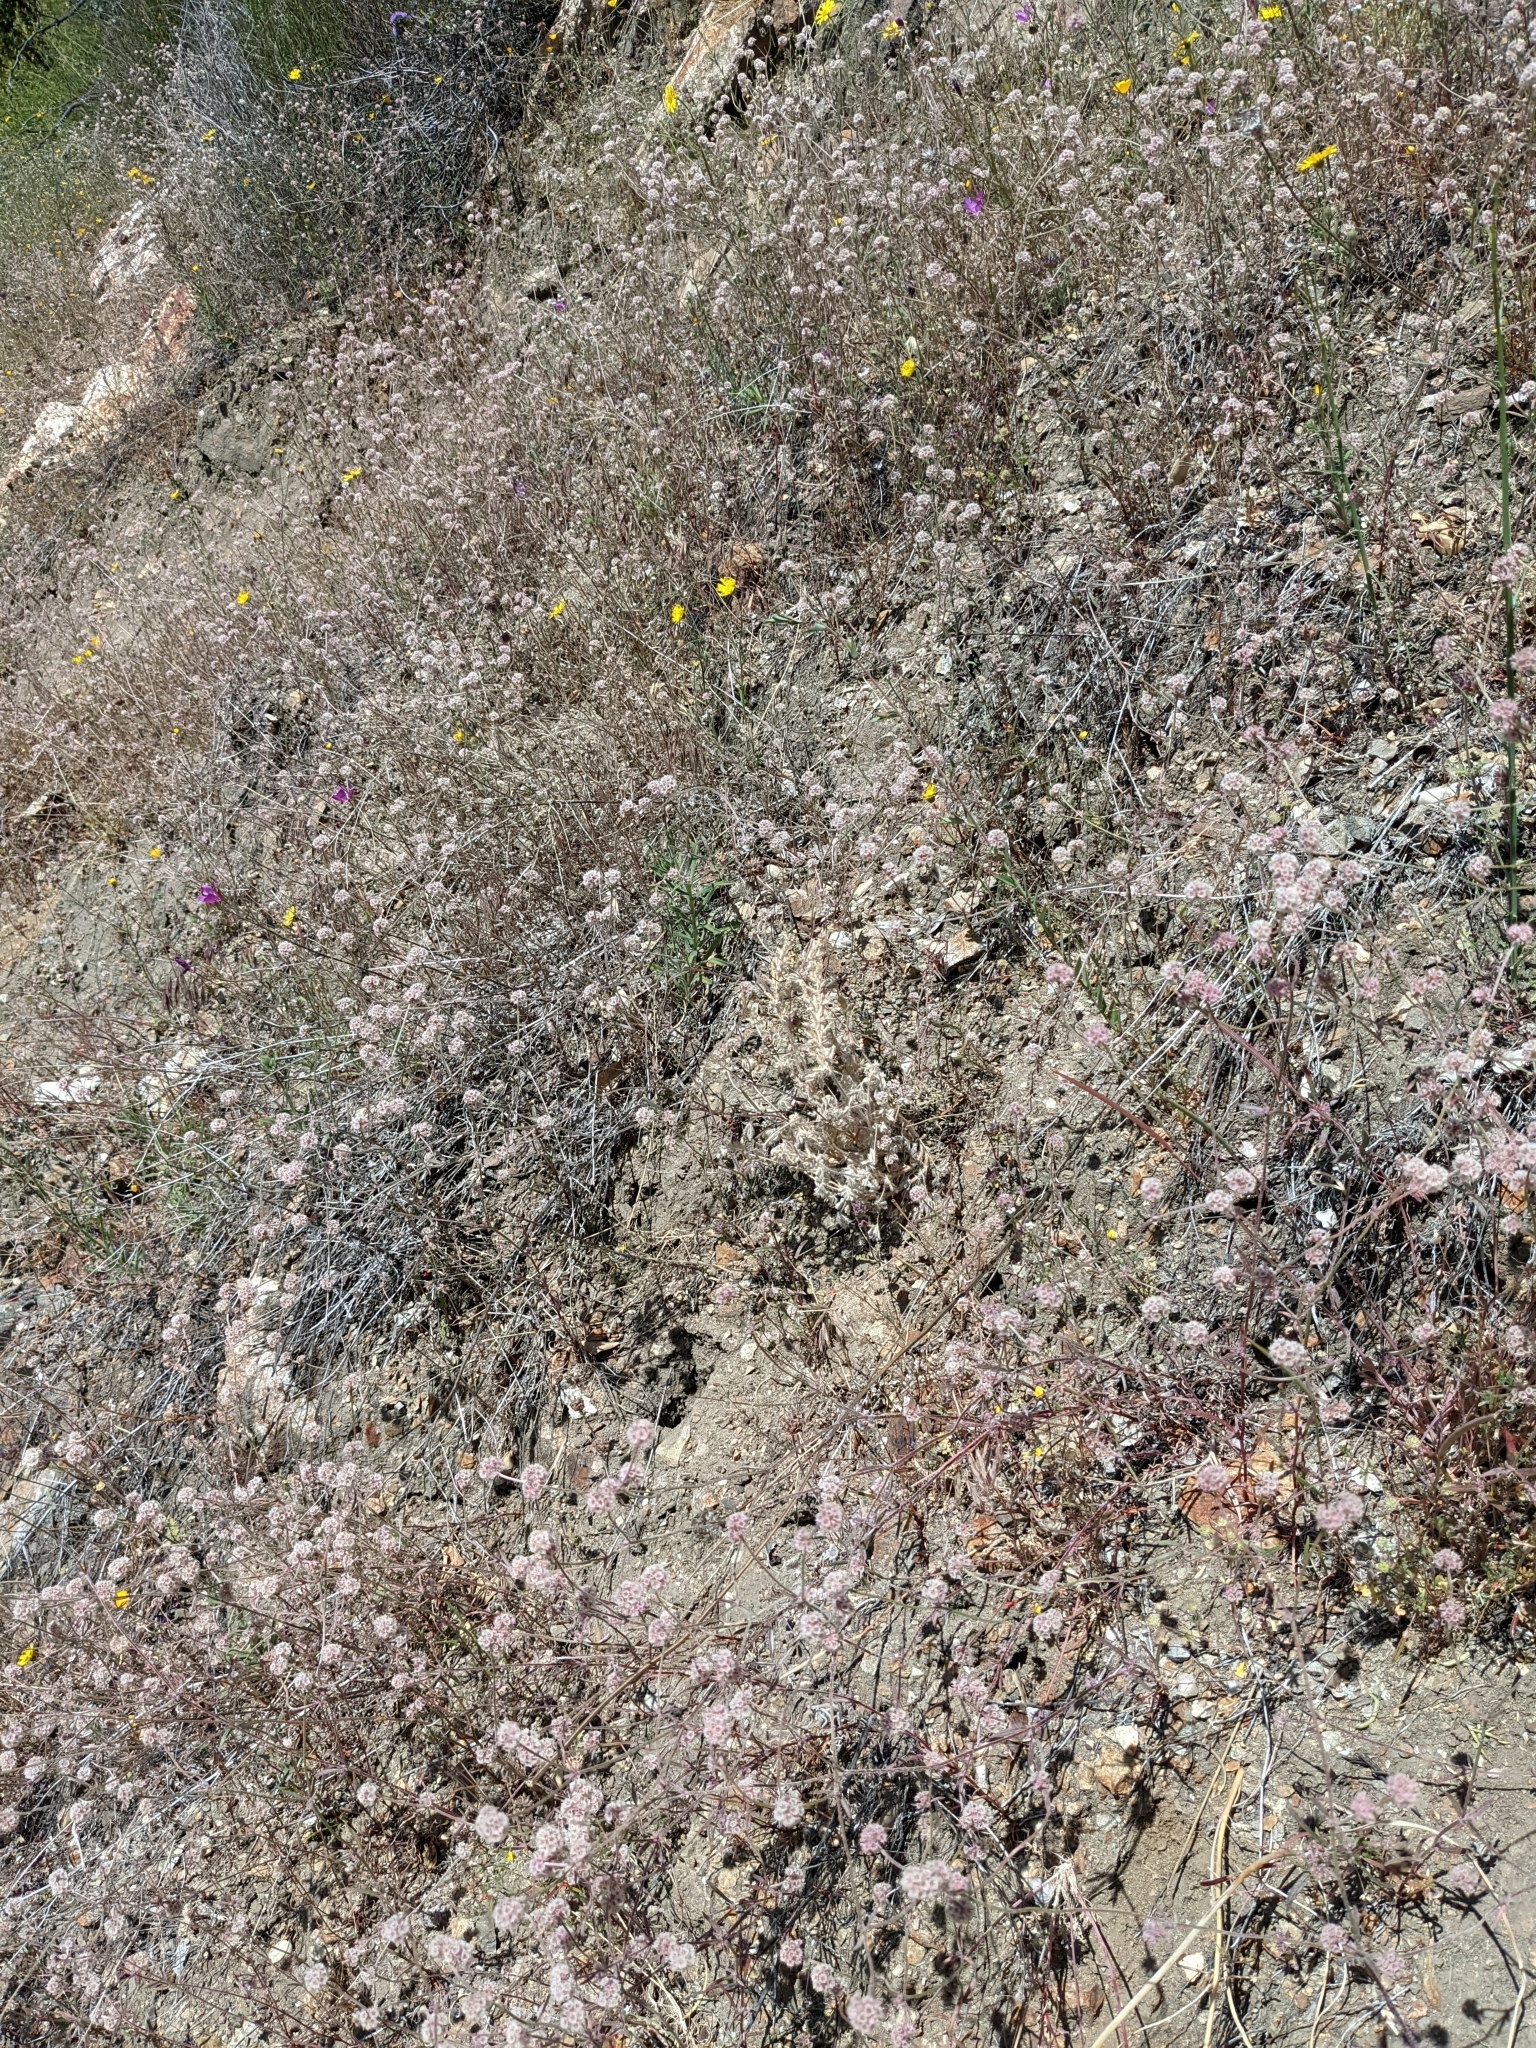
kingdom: Plantae
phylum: Tracheophyta
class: Magnoliopsida
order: Caryophyllales
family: Polygonaceae
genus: Chorizanthe
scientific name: Chorizanthe membranacea
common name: Pink spineflower
